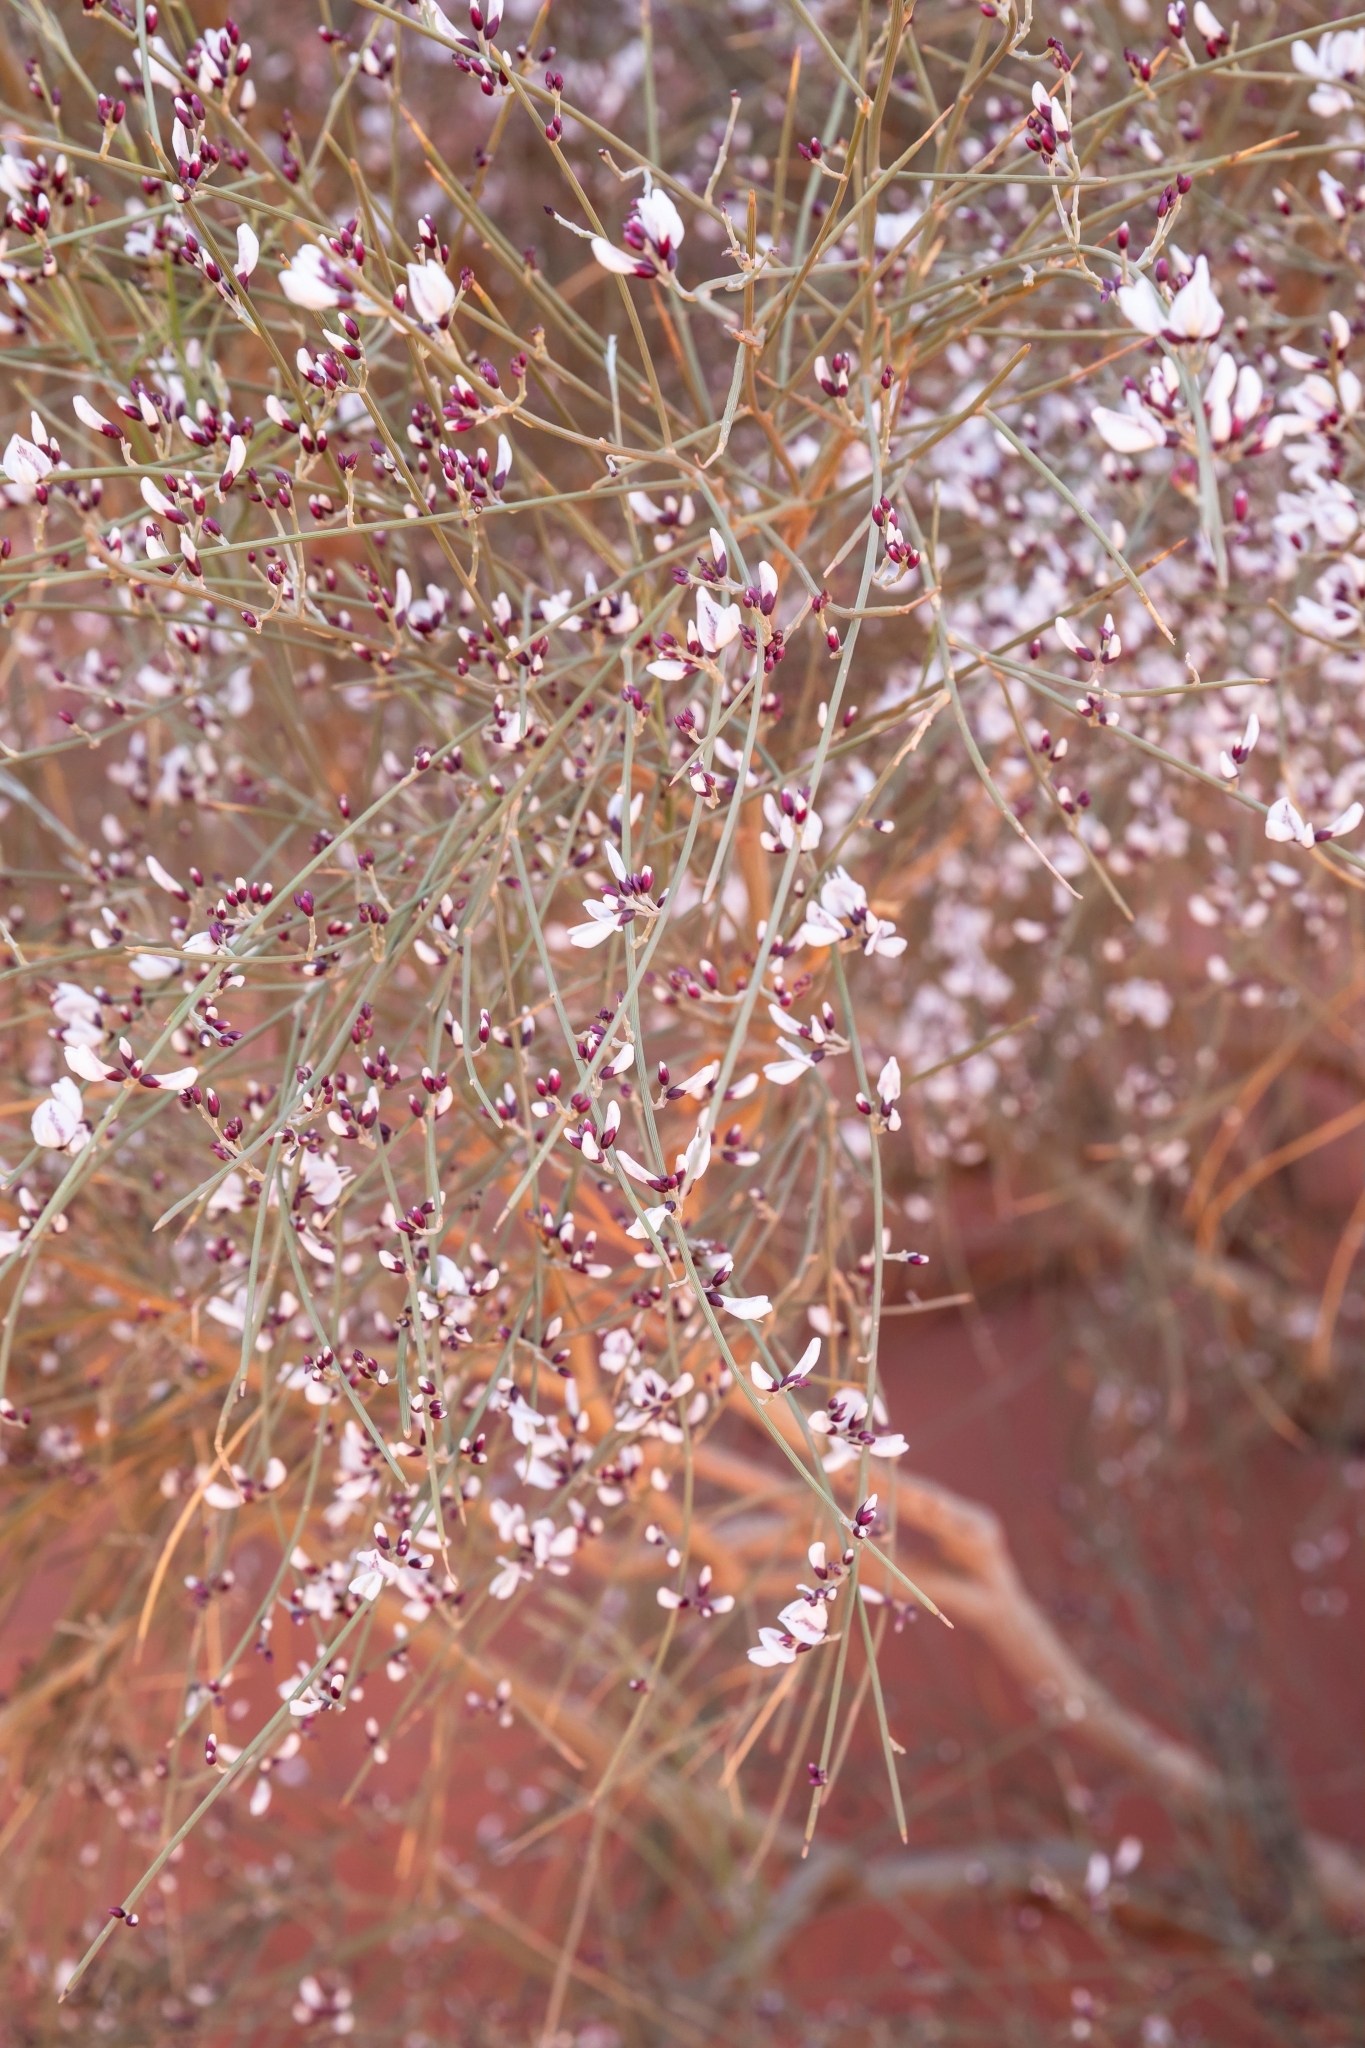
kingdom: Plantae
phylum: Tracheophyta
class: Magnoliopsida
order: Fabales
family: Fabaceae
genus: Retama
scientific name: Retama raetam
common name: Retem
